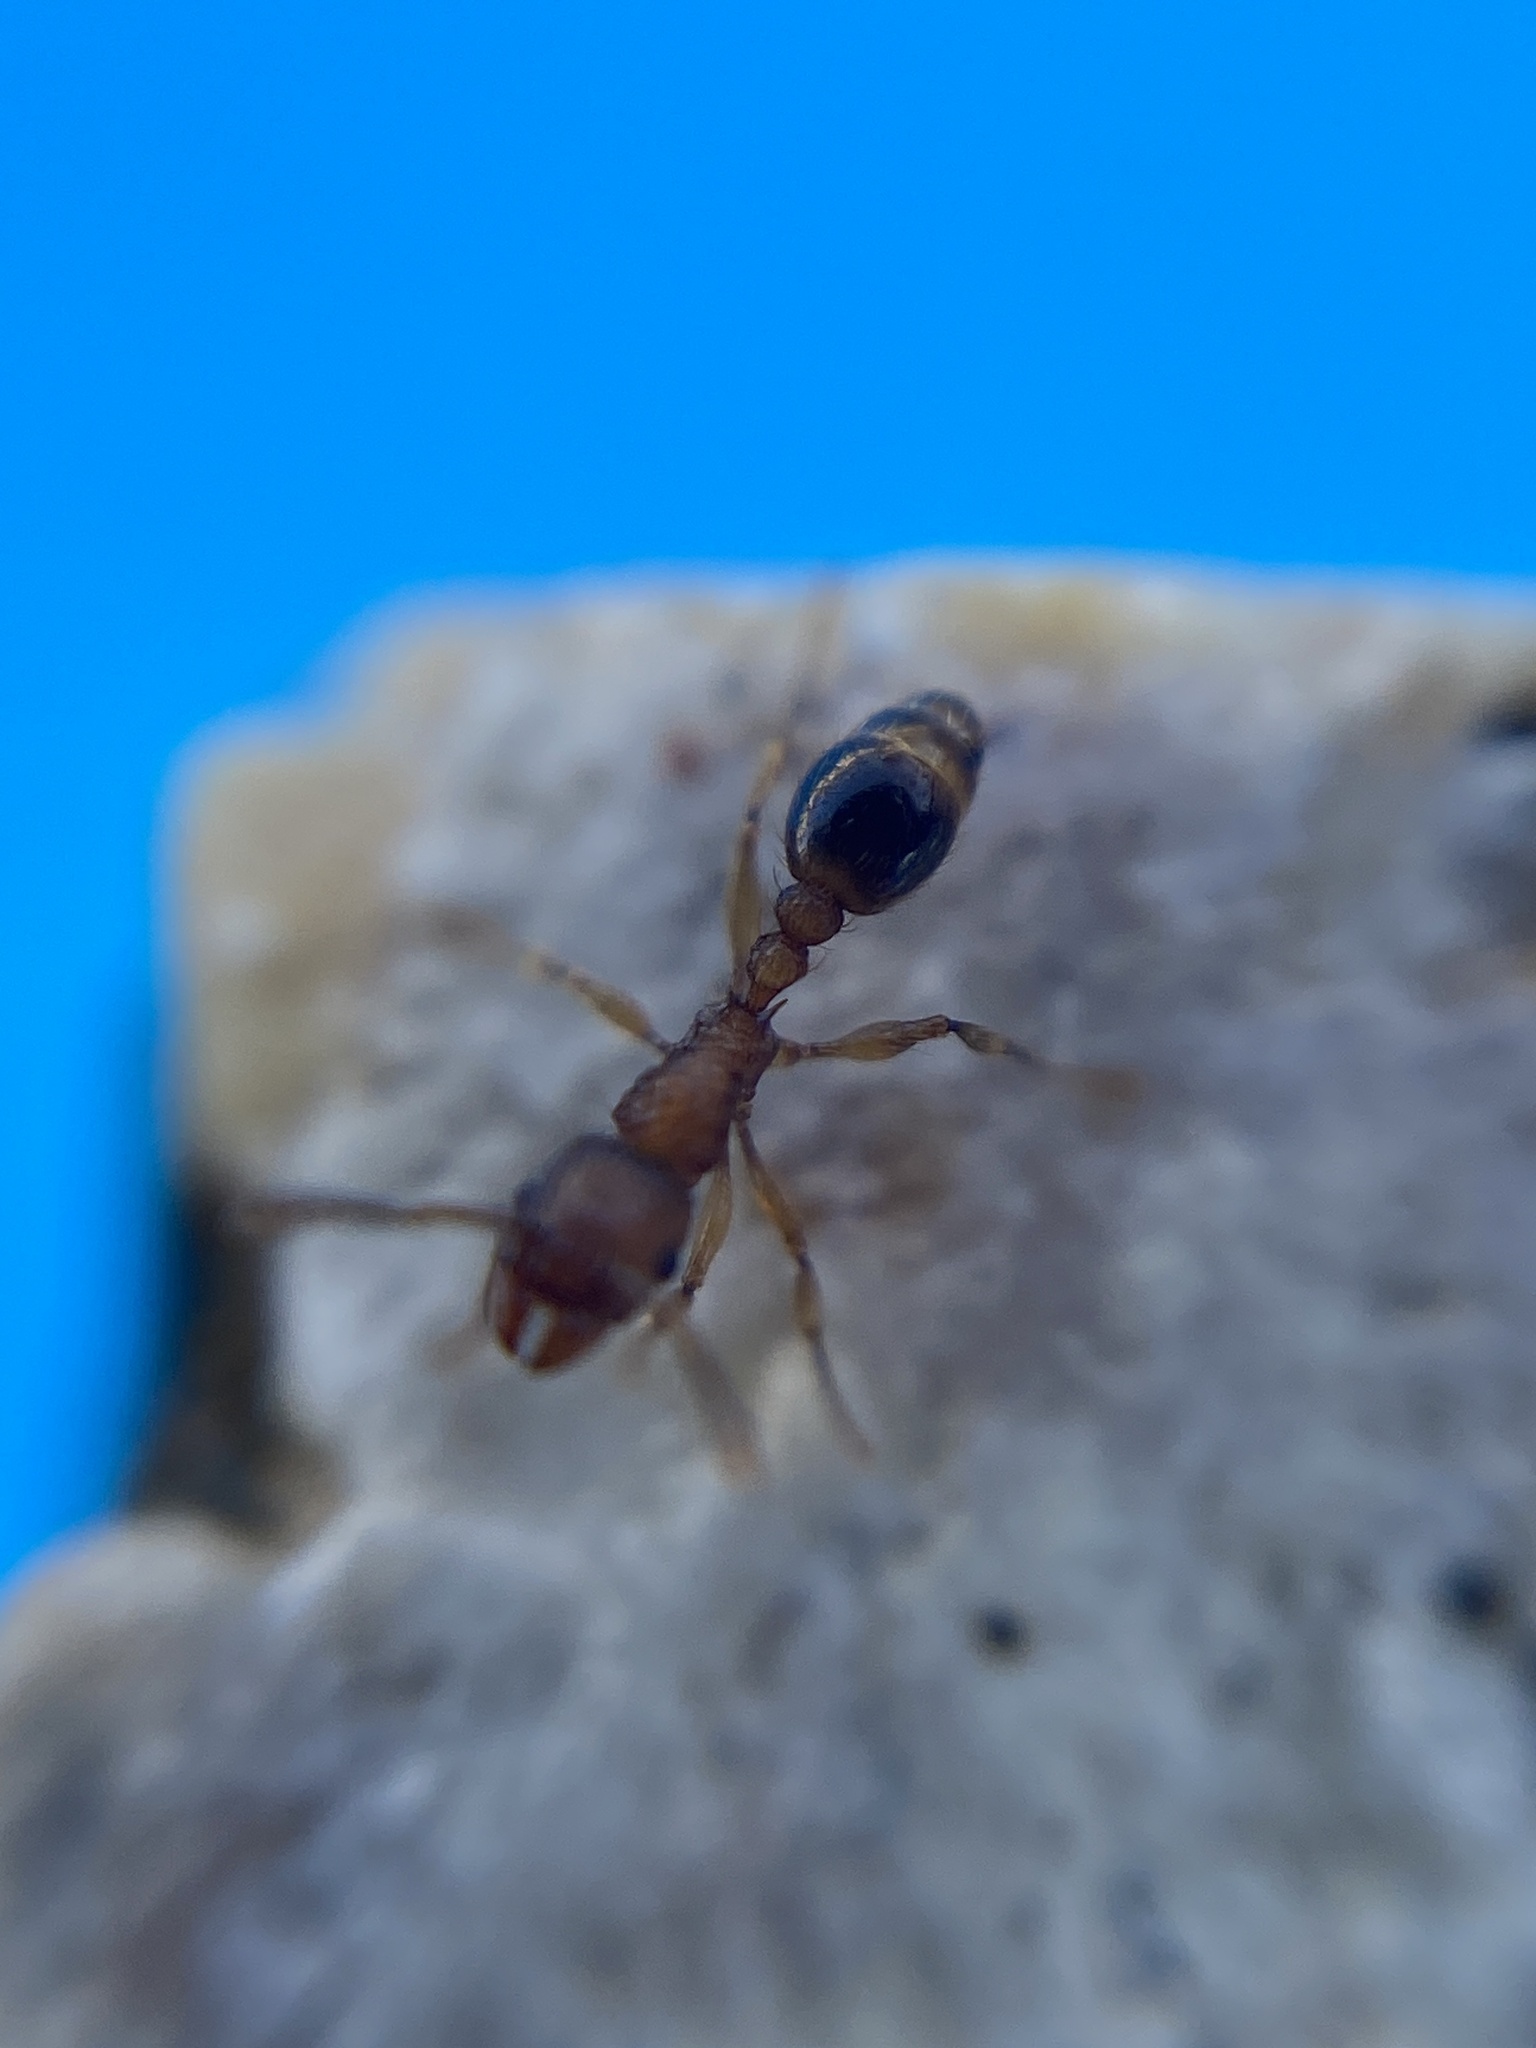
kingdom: Animalia
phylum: Arthropoda
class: Insecta
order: Hymenoptera
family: Formicidae
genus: Tetramorium
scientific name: Tetramorium bicarinatum
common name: Guinea ant
